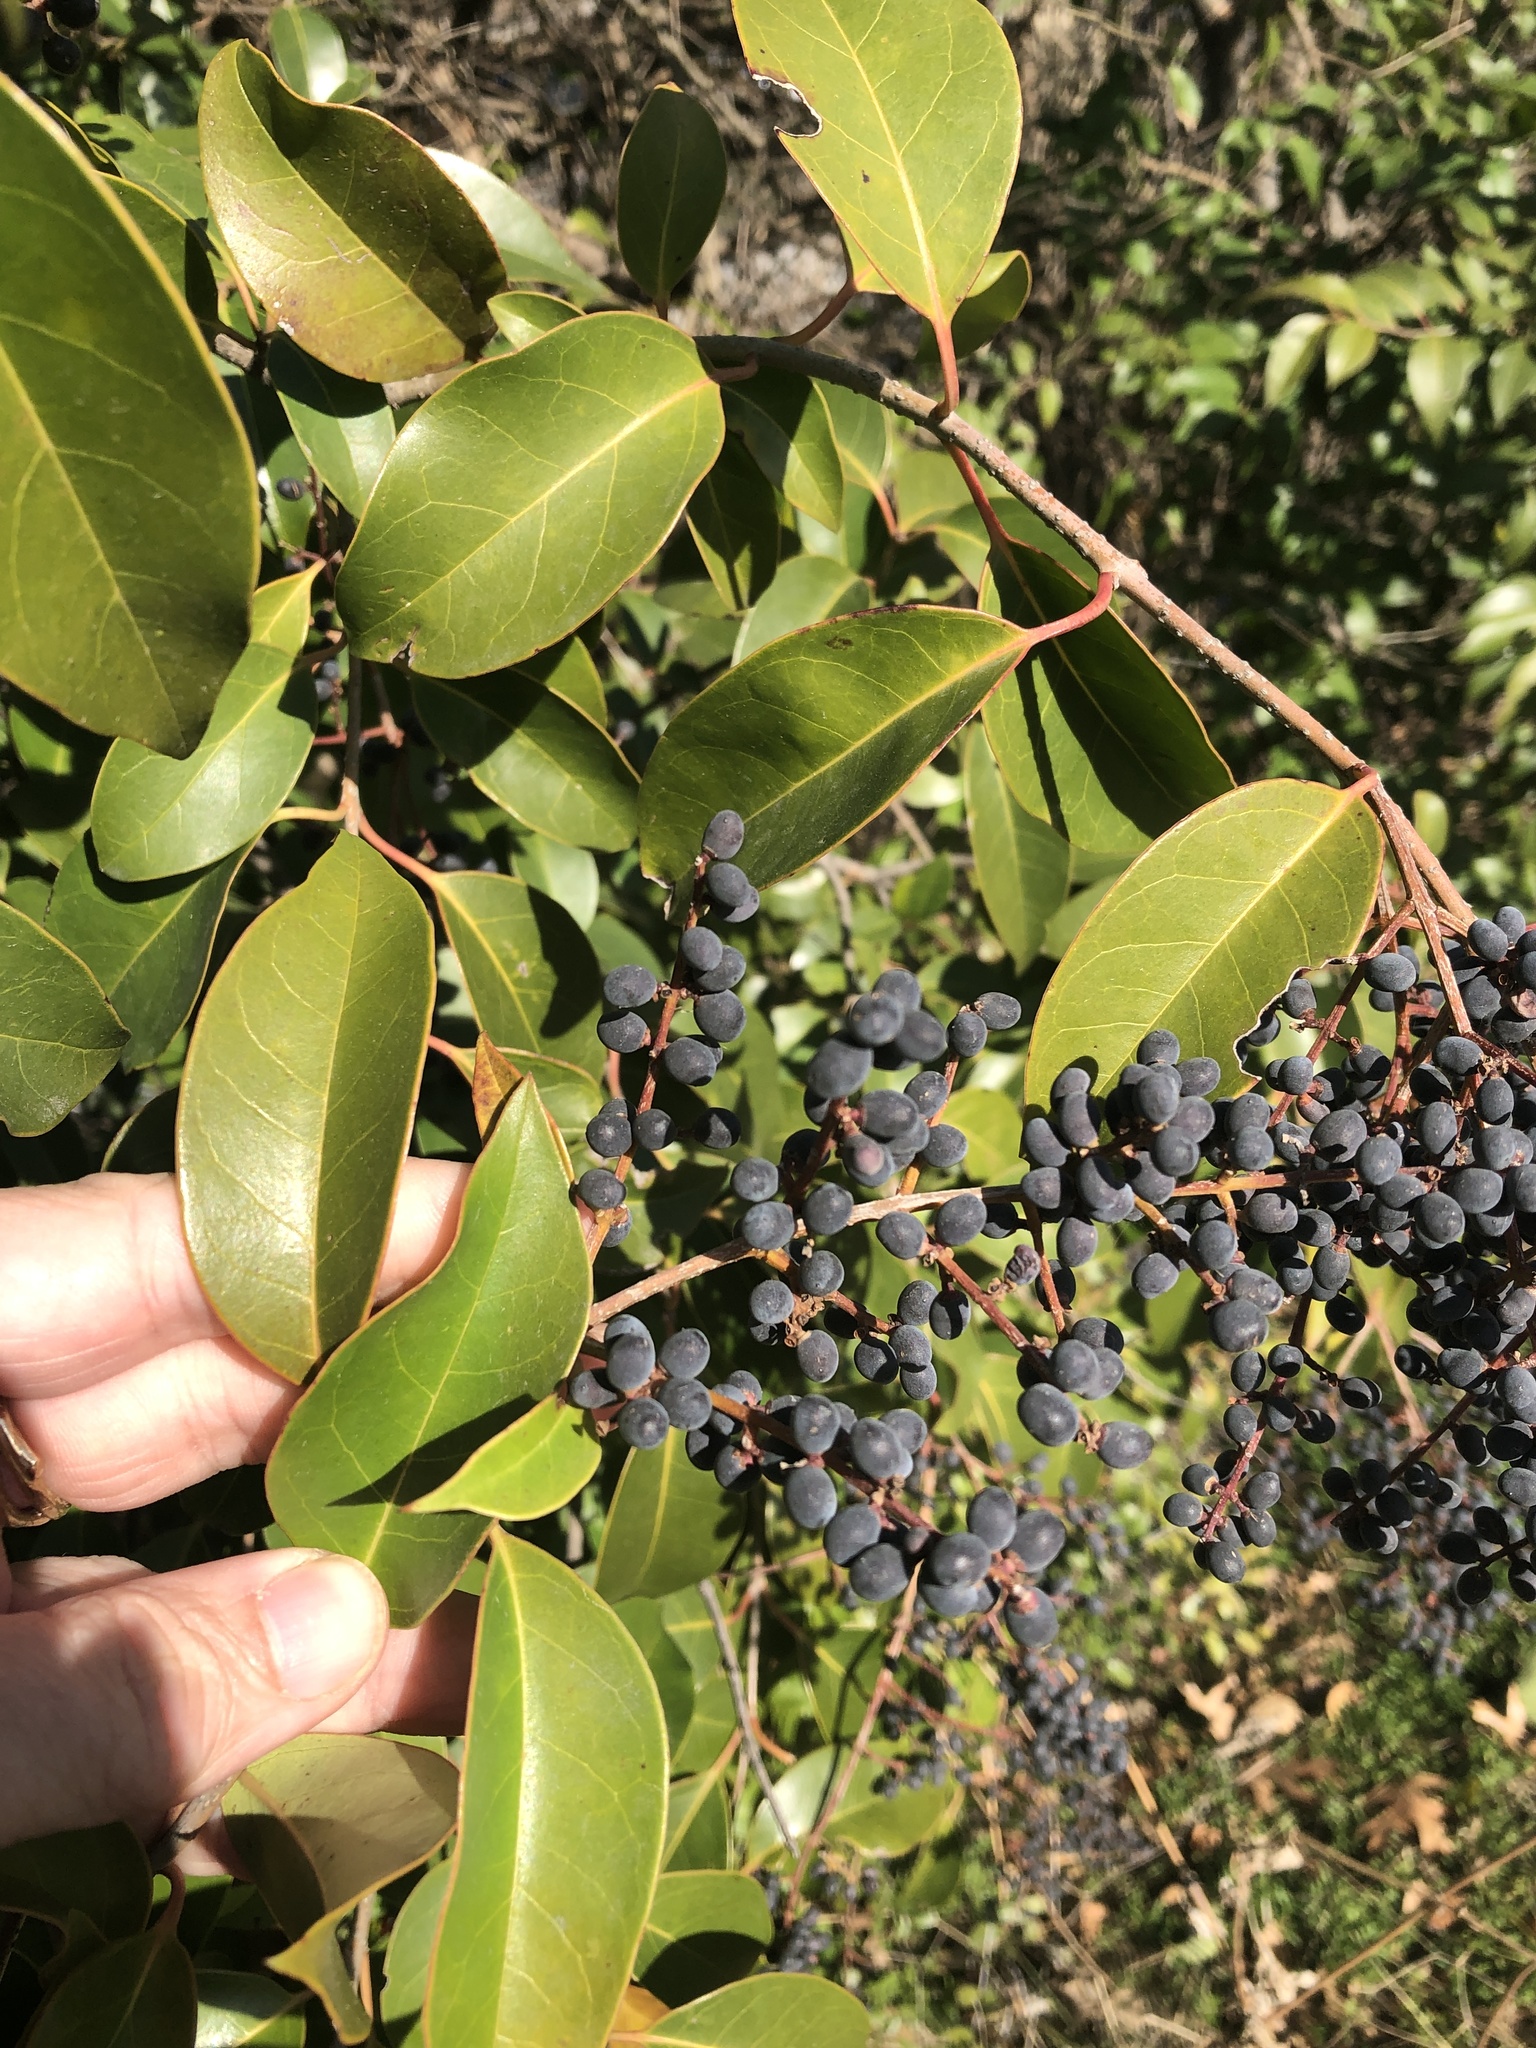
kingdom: Plantae
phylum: Tracheophyta
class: Magnoliopsida
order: Lamiales
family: Oleaceae
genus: Ligustrum
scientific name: Ligustrum lucidum
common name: Glossy privet
